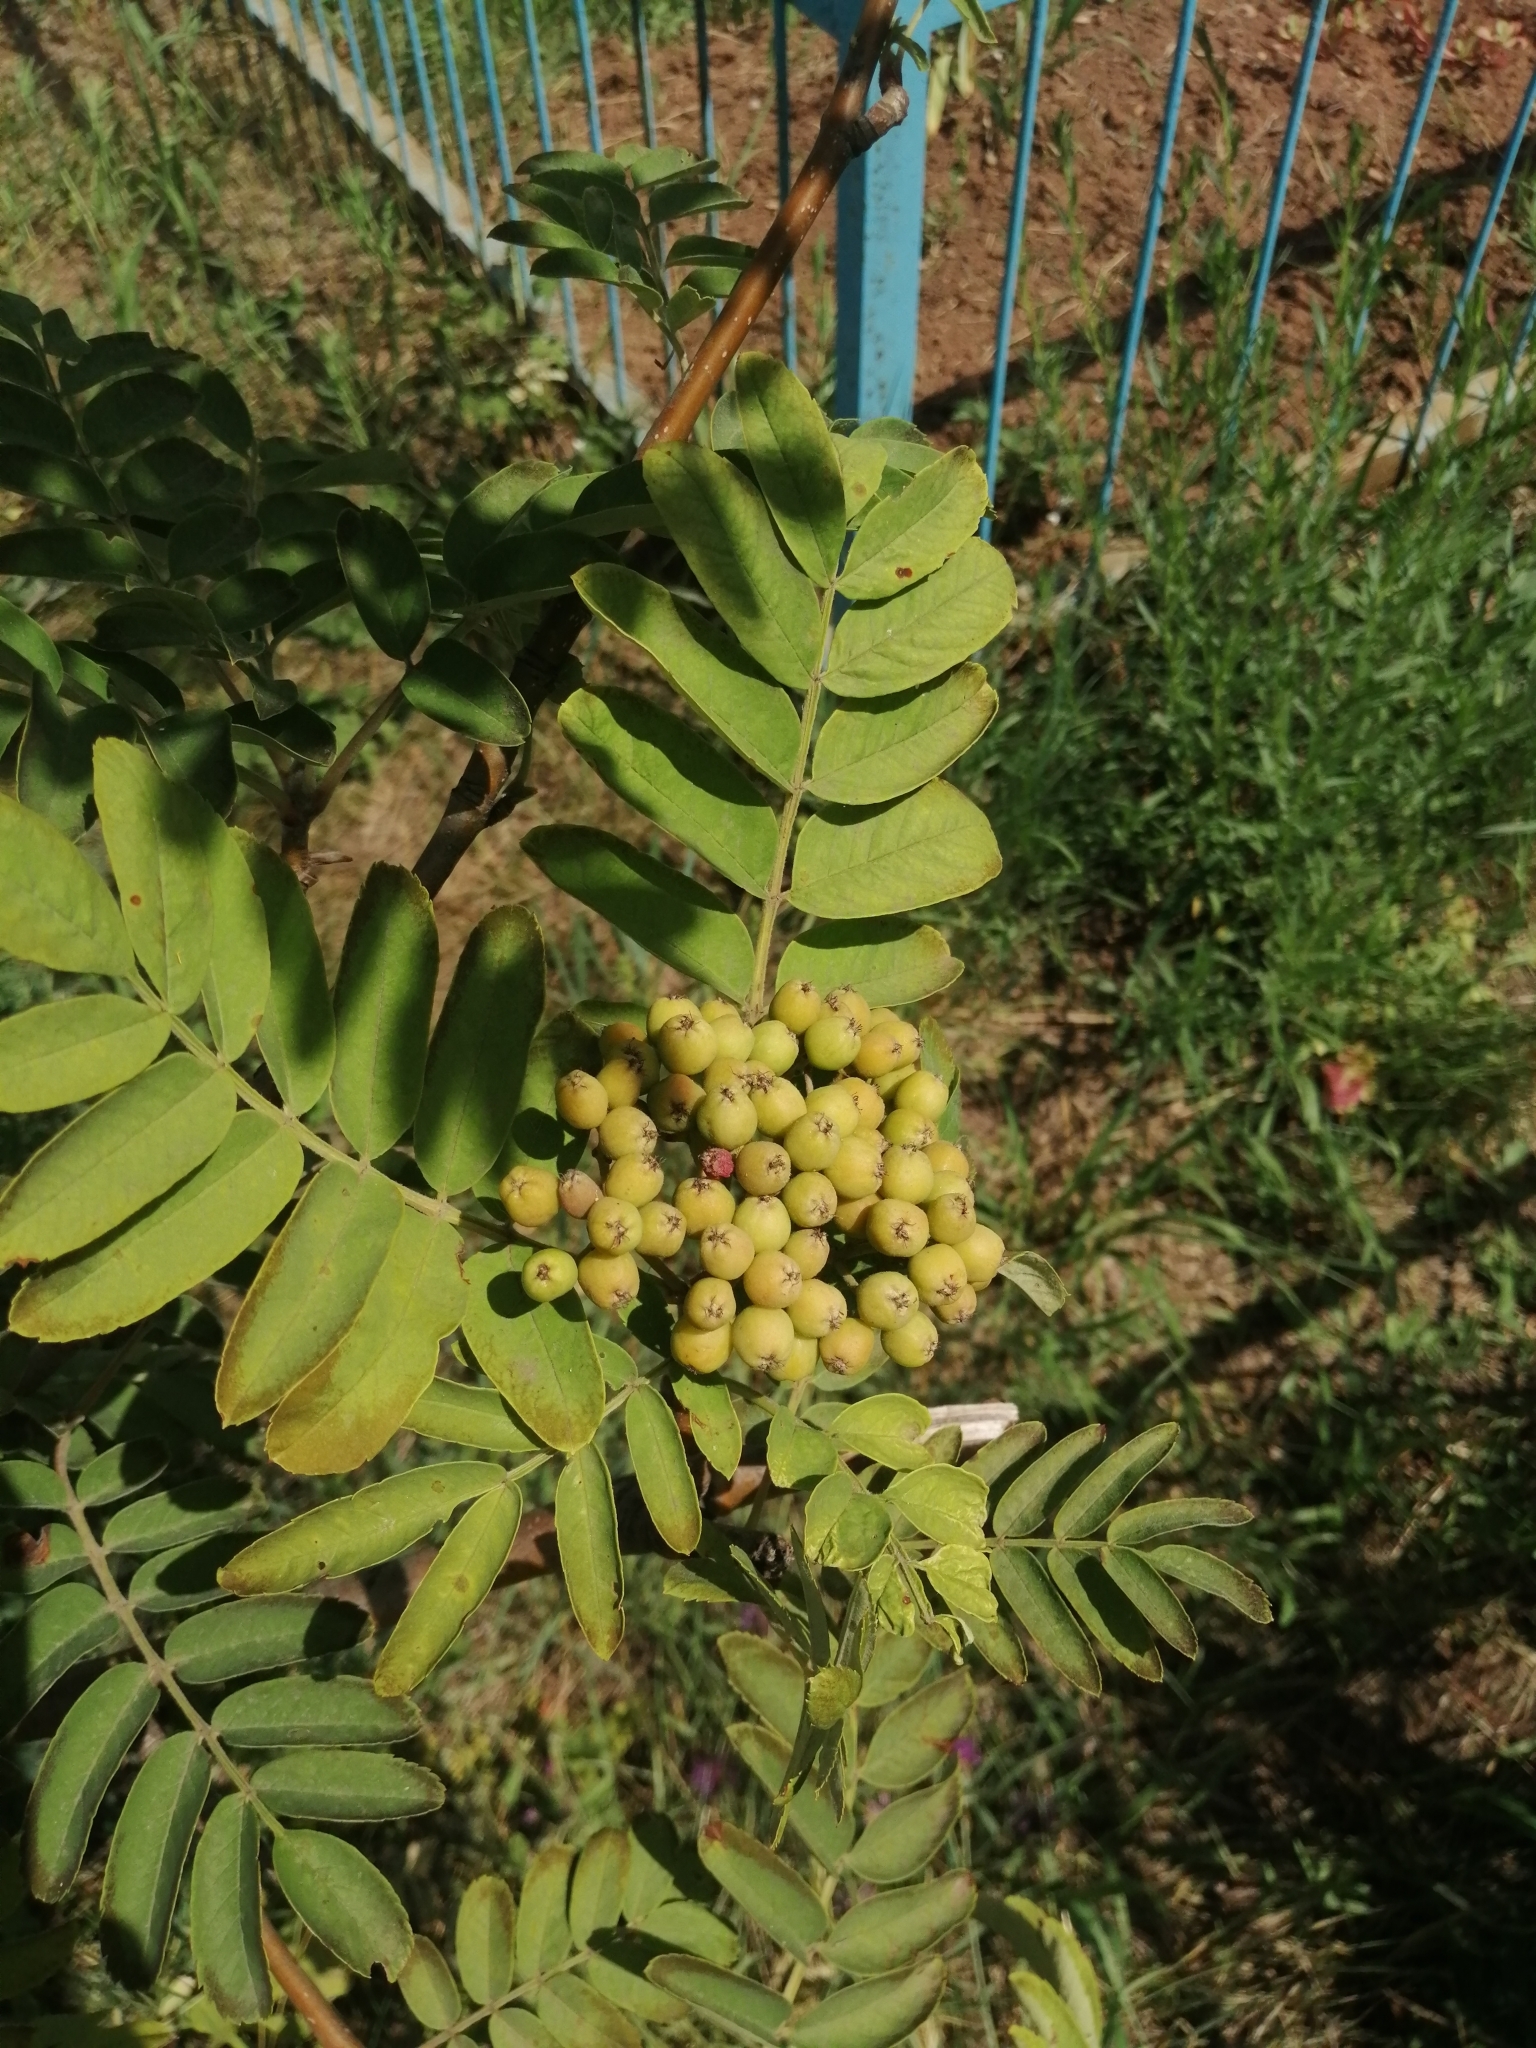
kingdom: Plantae
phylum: Tracheophyta
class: Magnoliopsida
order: Rosales
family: Rosaceae
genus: Sorbus
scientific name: Sorbus aucuparia
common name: Rowan
